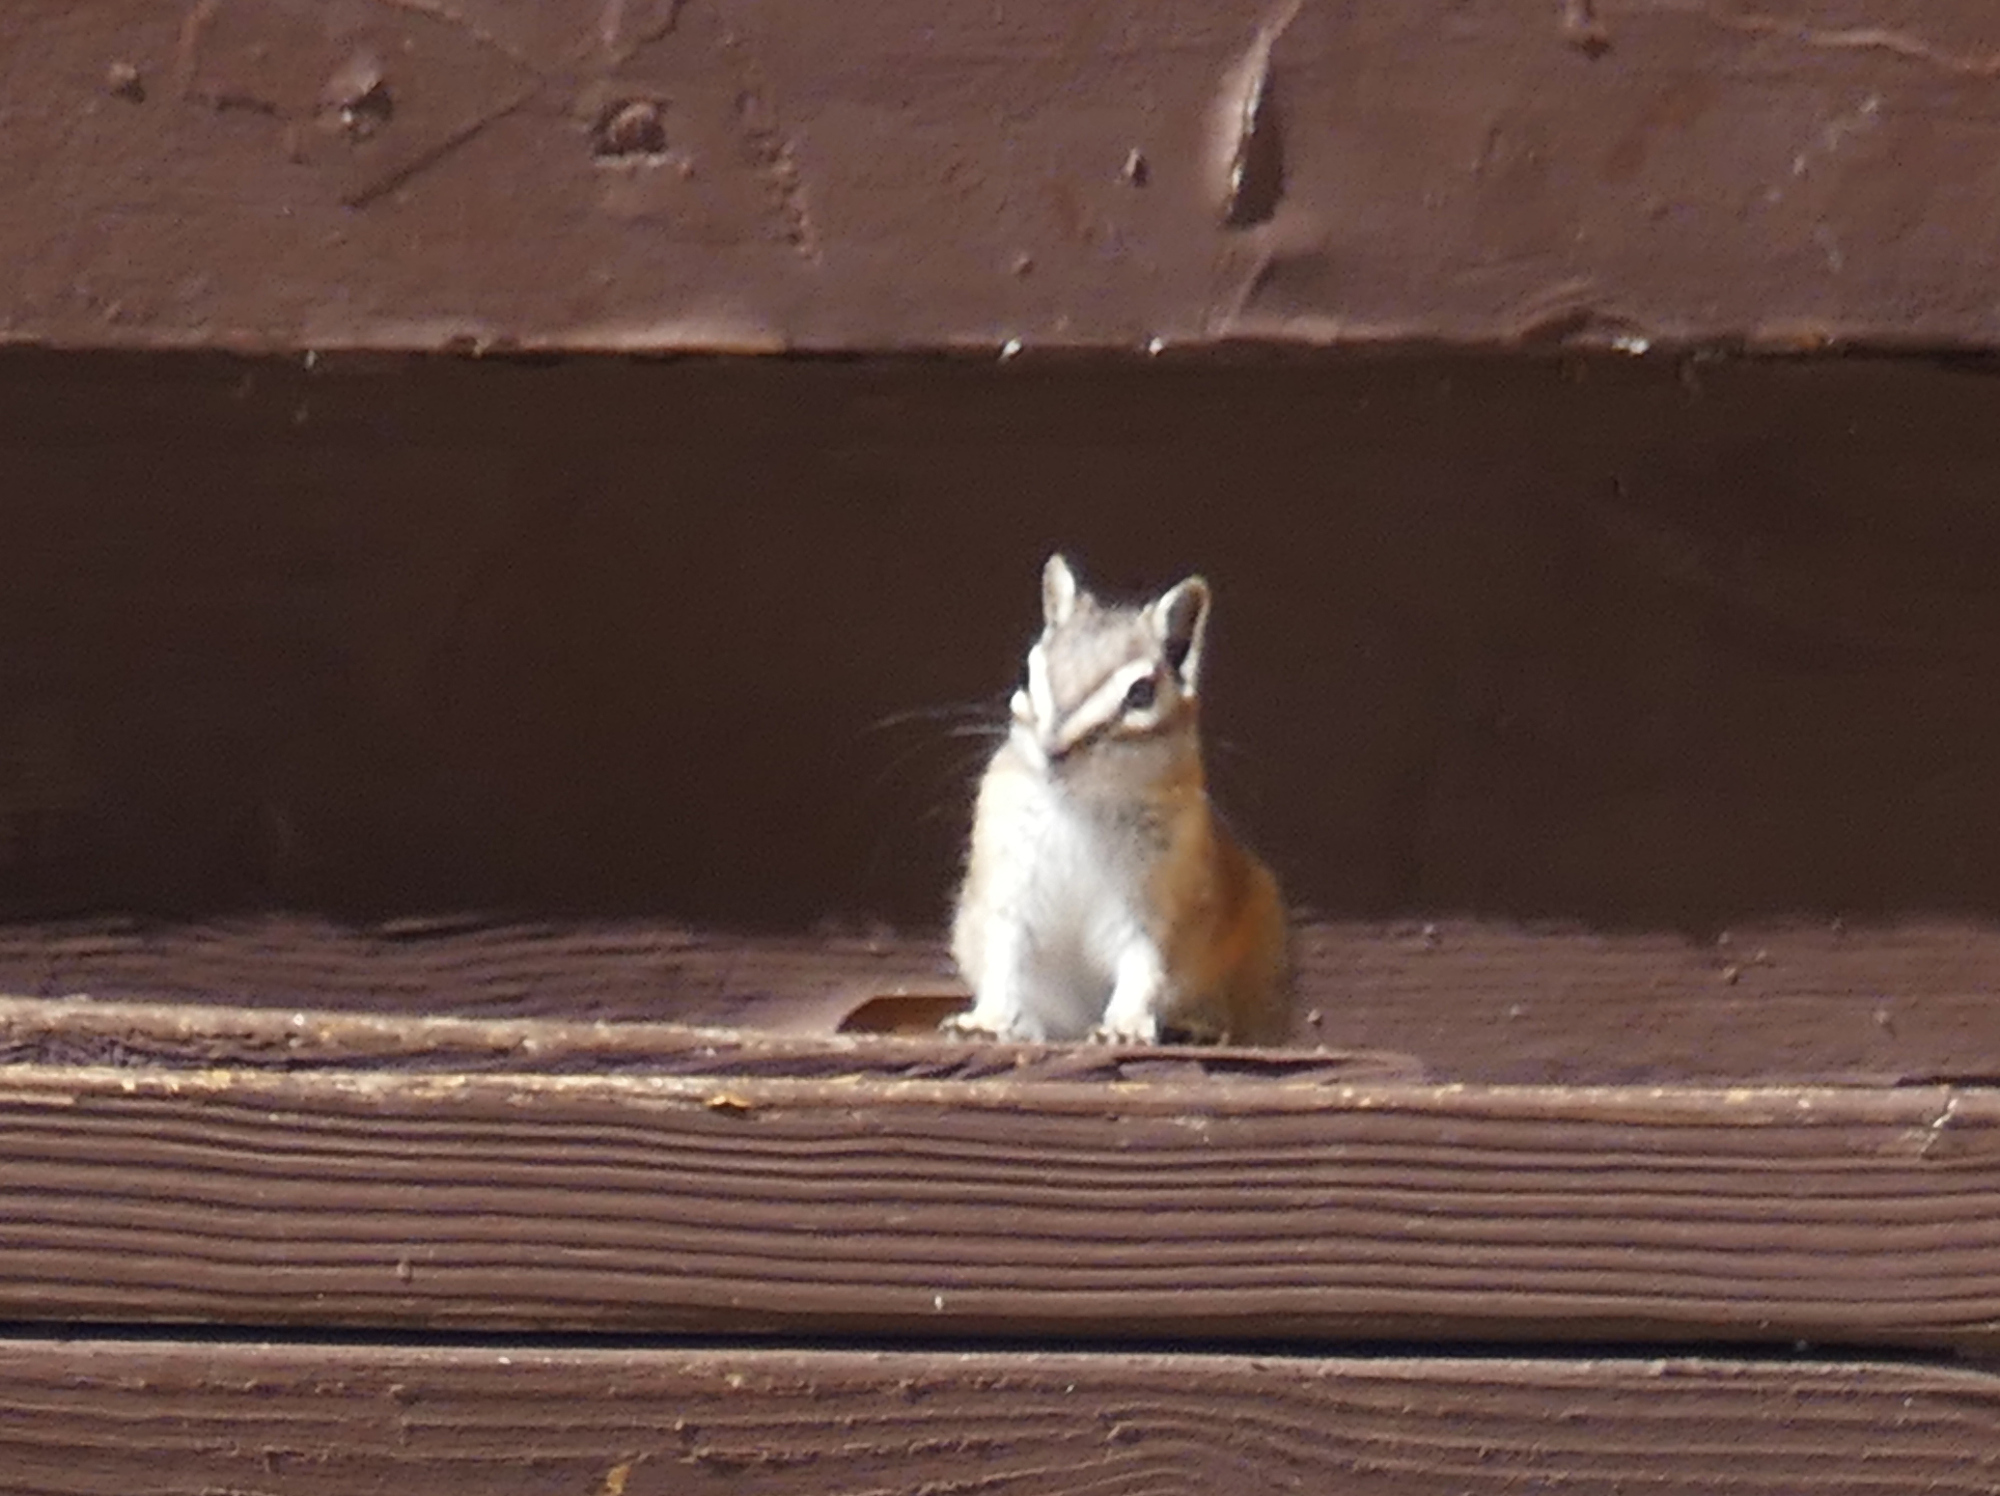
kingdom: Animalia
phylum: Chordata
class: Mammalia
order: Rodentia
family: Sciuridae
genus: Tamias
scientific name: Tamias umbrinus
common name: Uinta chipmunk
